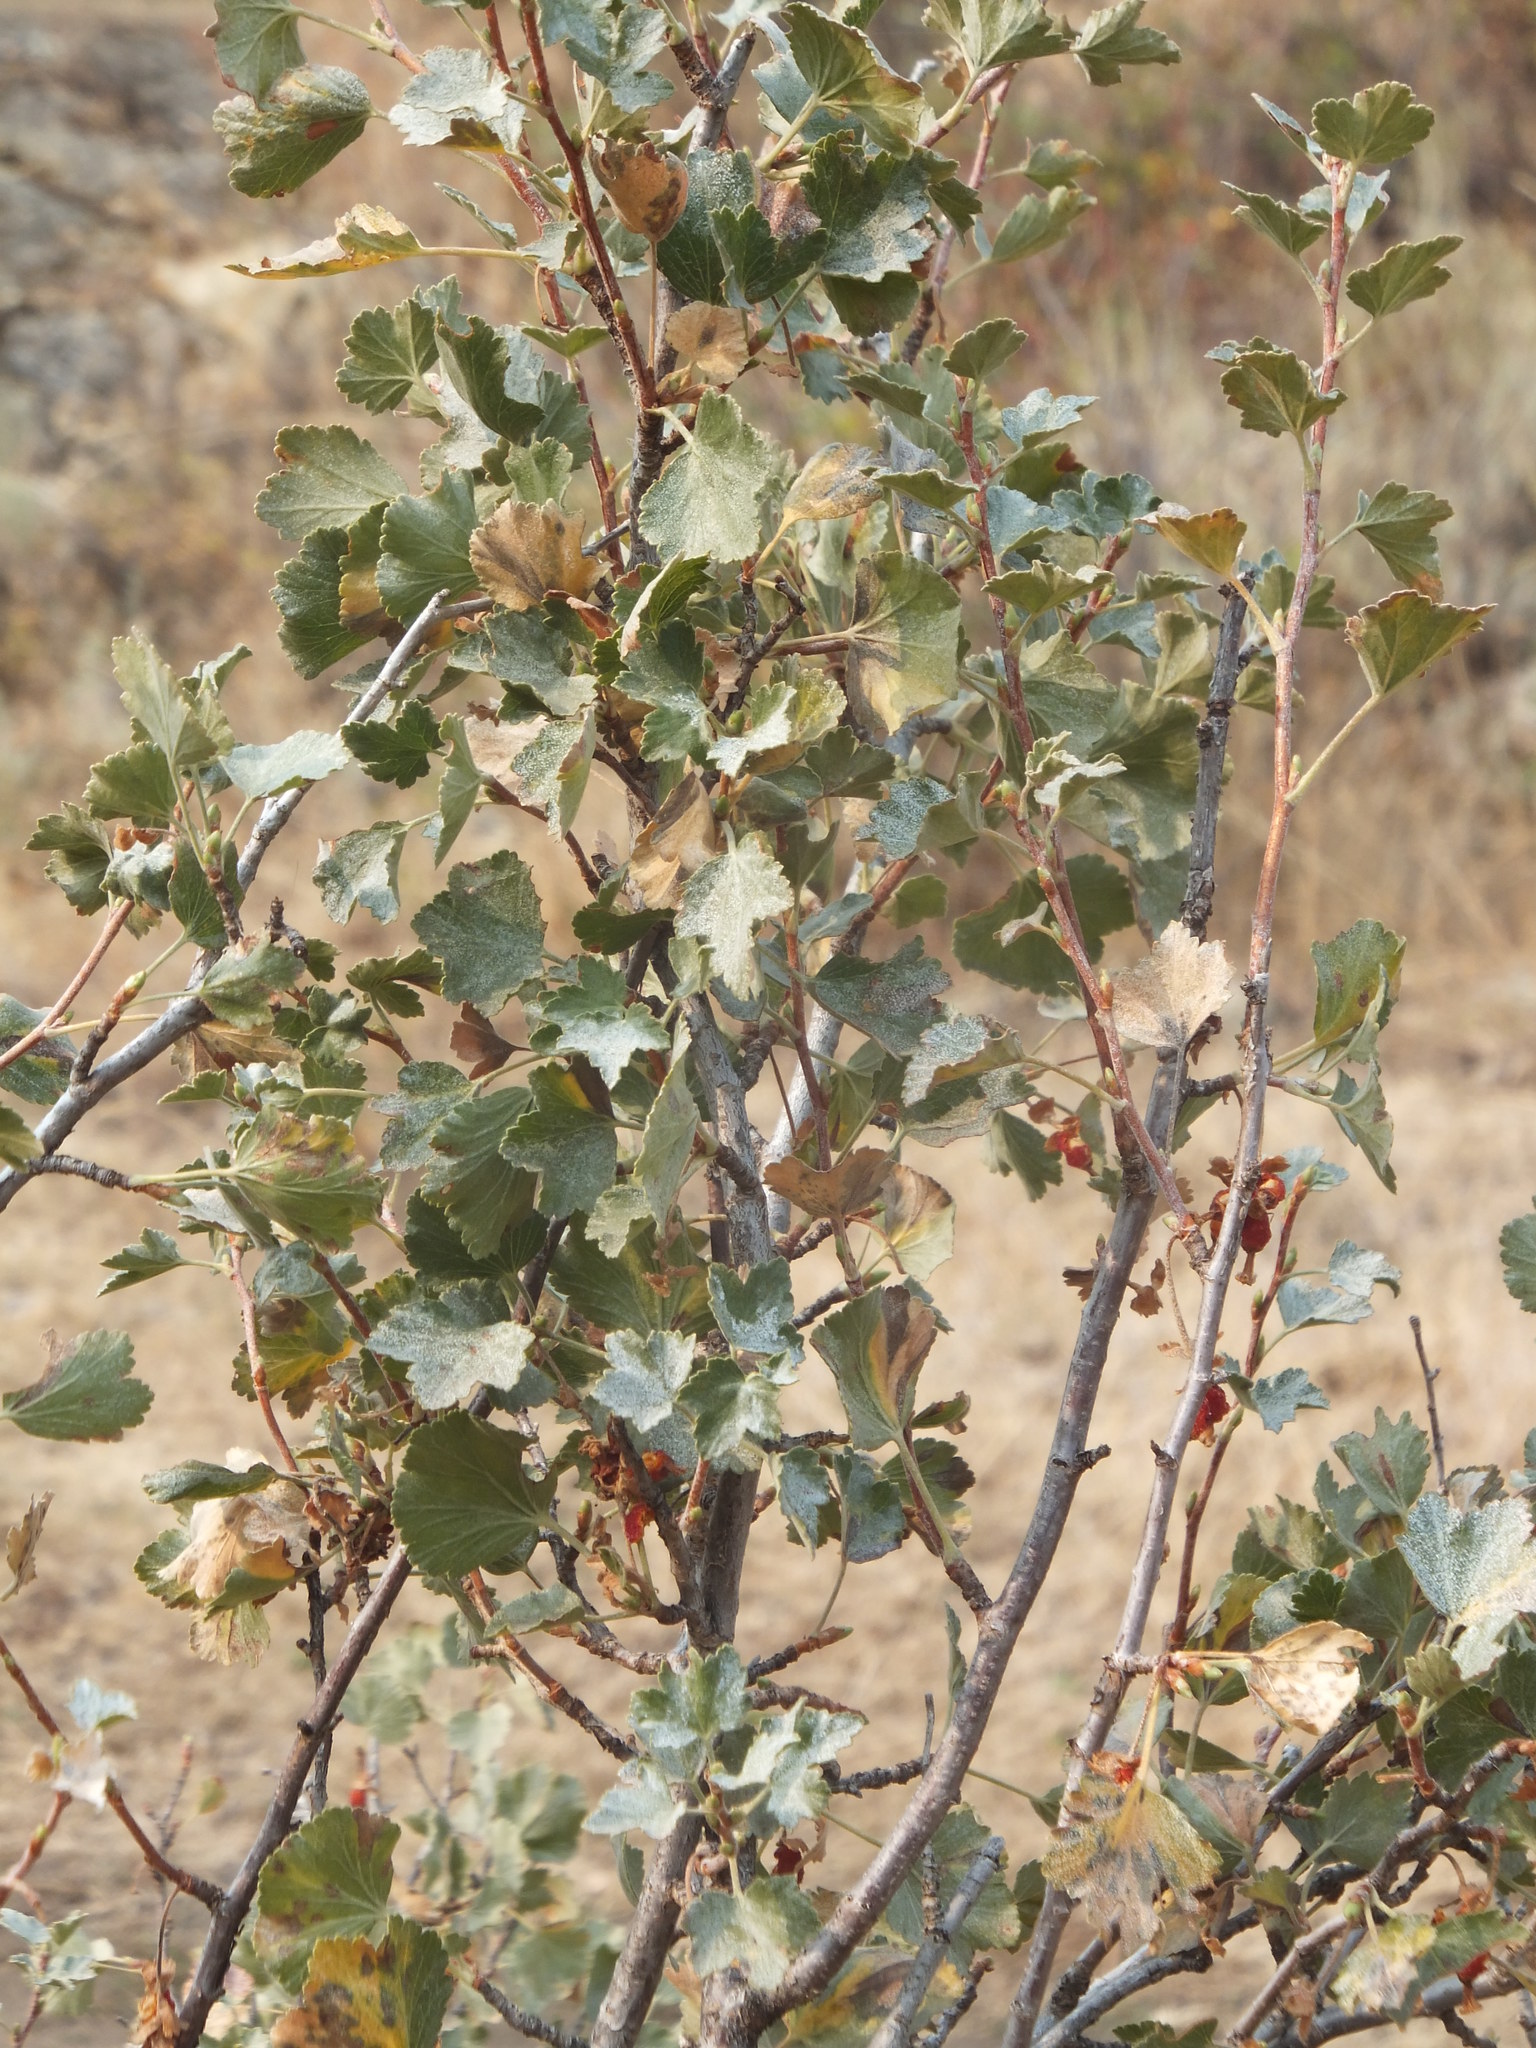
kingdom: Plantae
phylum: Tracheophyta
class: Magnoliopsida
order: Saxifragales
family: Grossulariaceae
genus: Ribes
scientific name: Ribes cereum
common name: Wax currant
